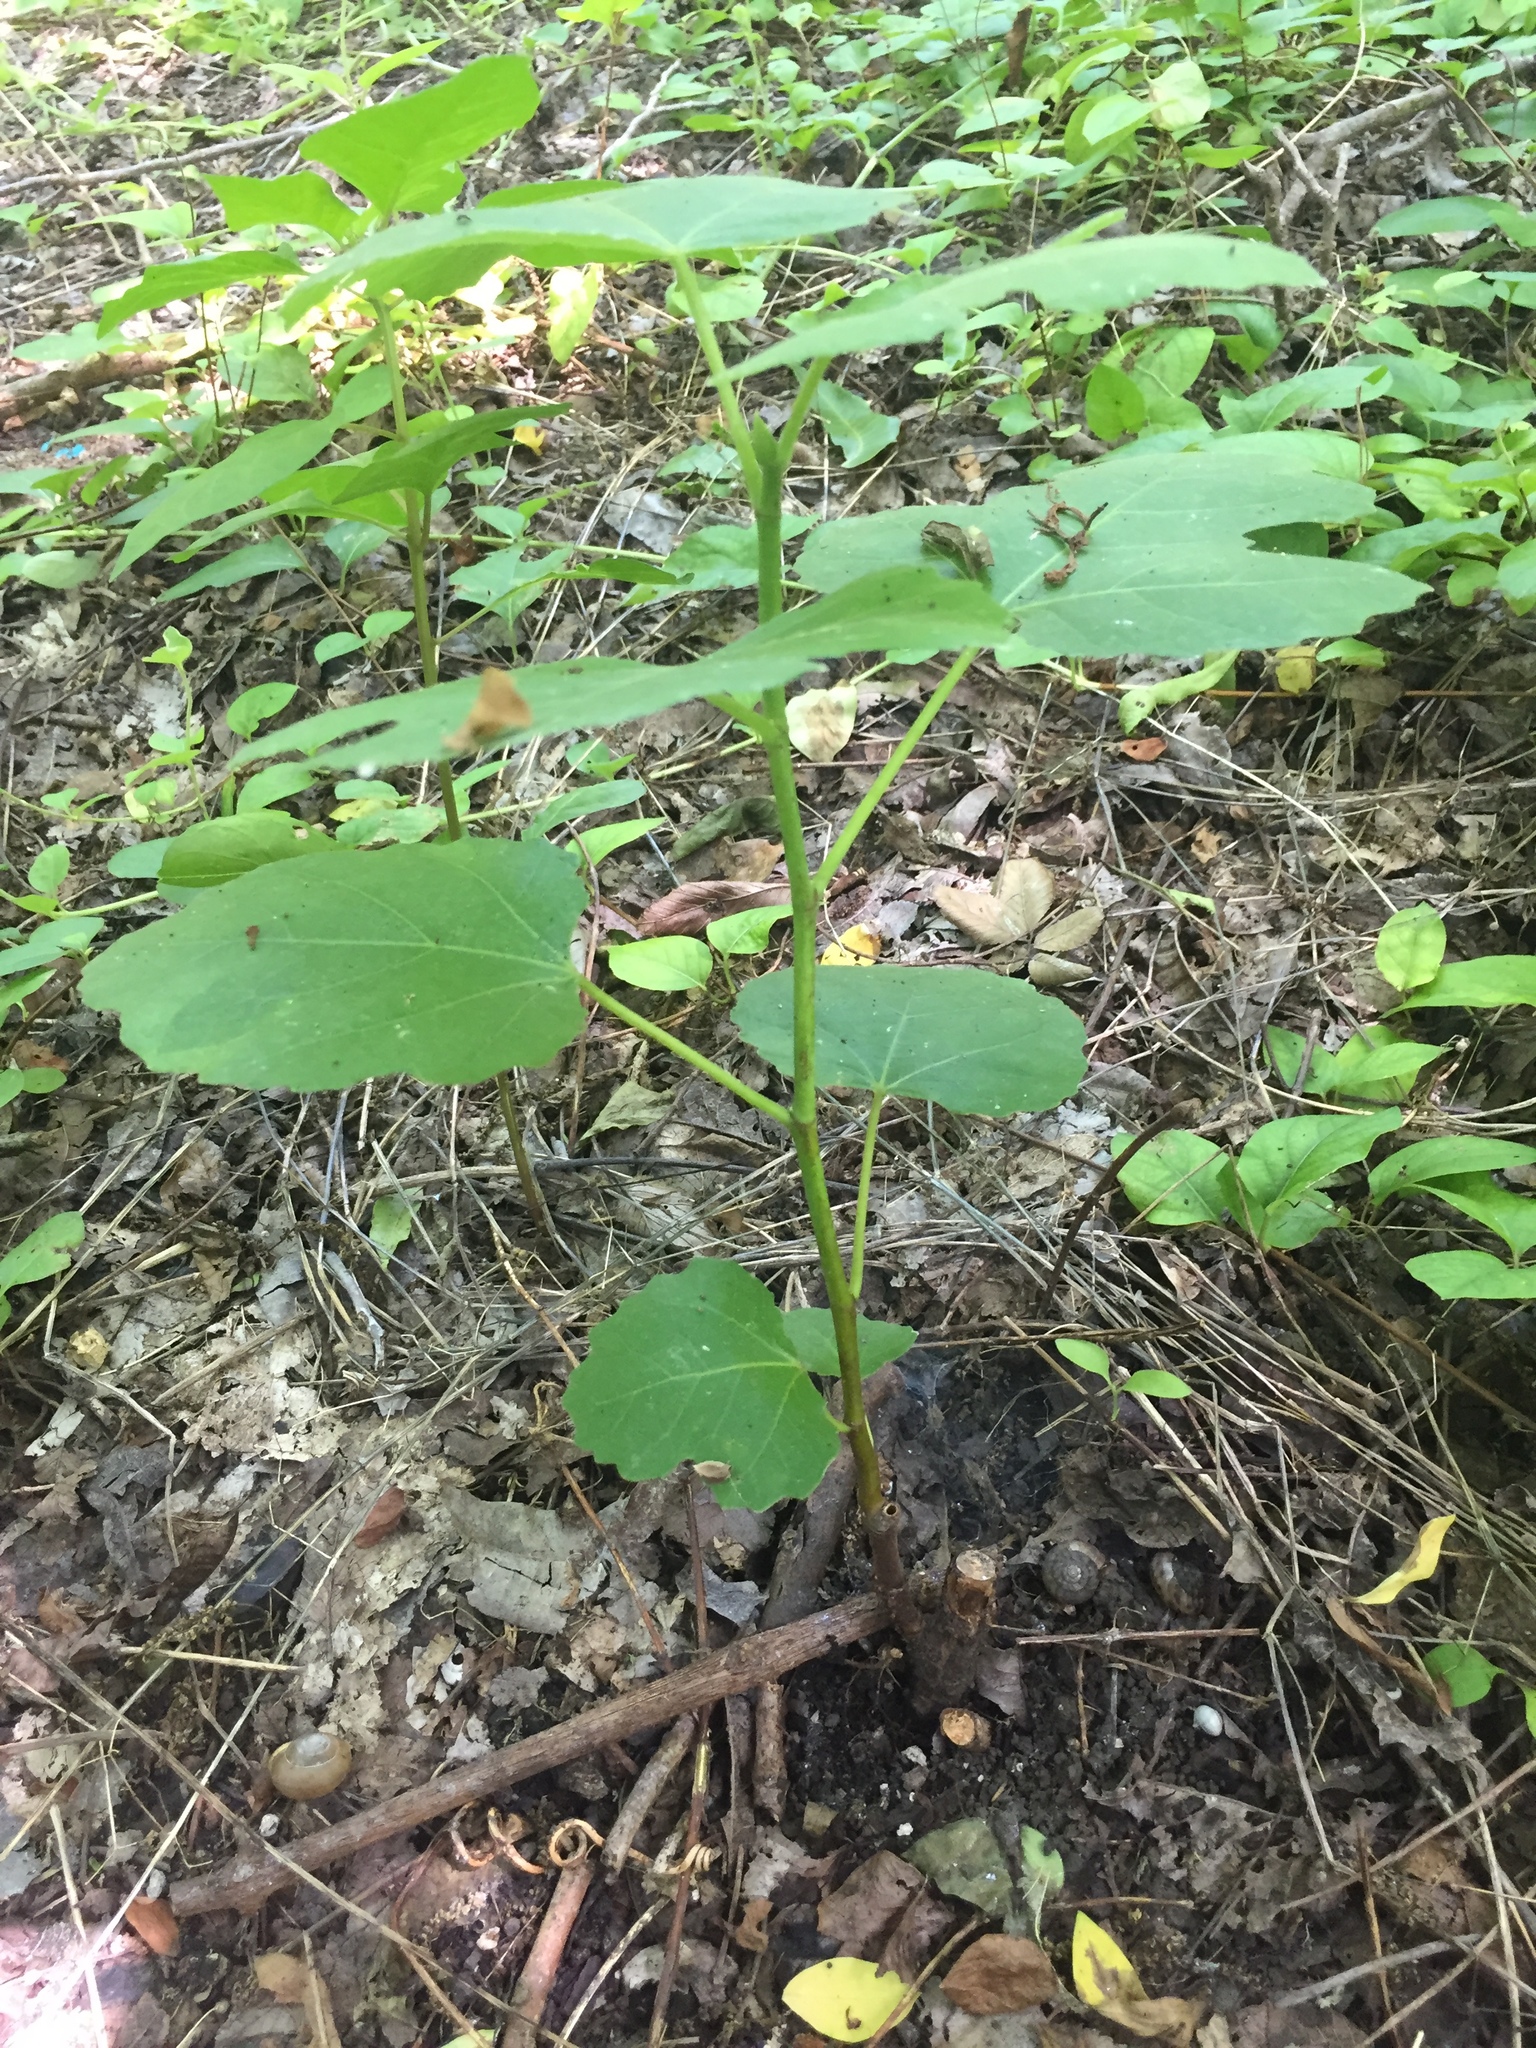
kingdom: Plantae
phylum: Tracheophyta
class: Magnoliopsida
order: Rosales
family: Moraceae
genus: Ficus
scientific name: Ficus carica
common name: Fig
